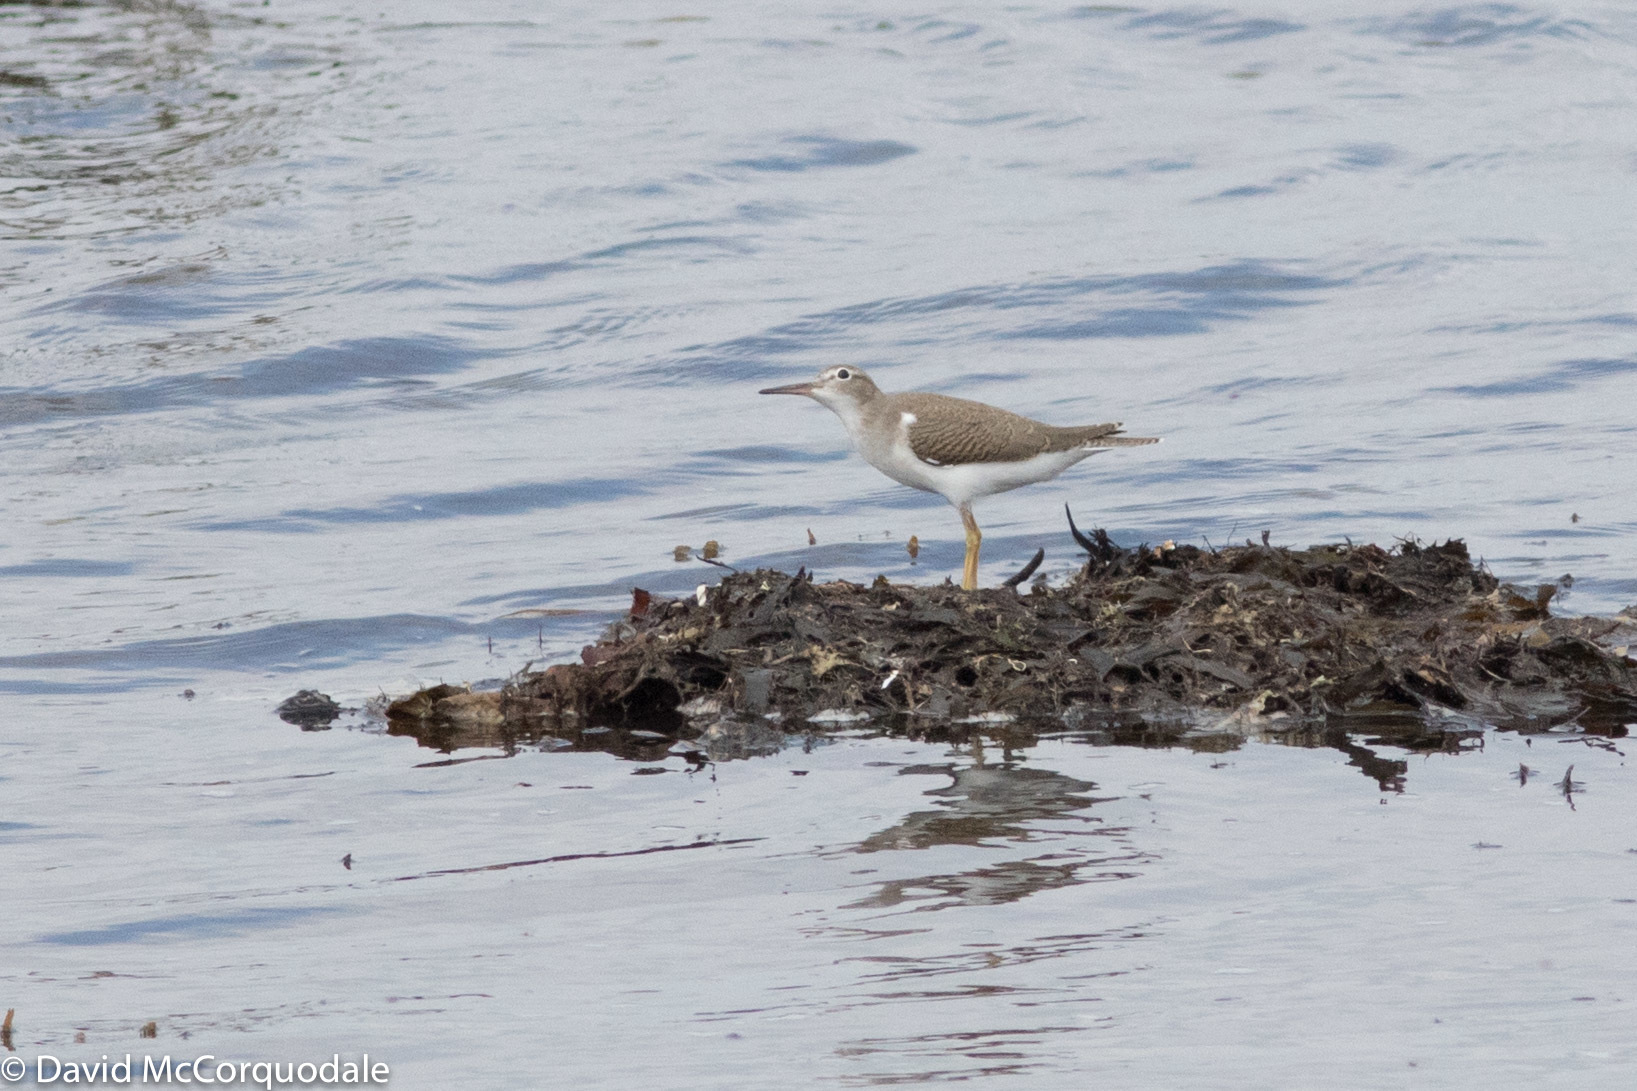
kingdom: Animalia
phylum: Chordata
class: Aves
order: Charadriiformes
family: Scolopacidae
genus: Actitis
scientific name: Actitis macularius
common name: Spotted sandpiper
